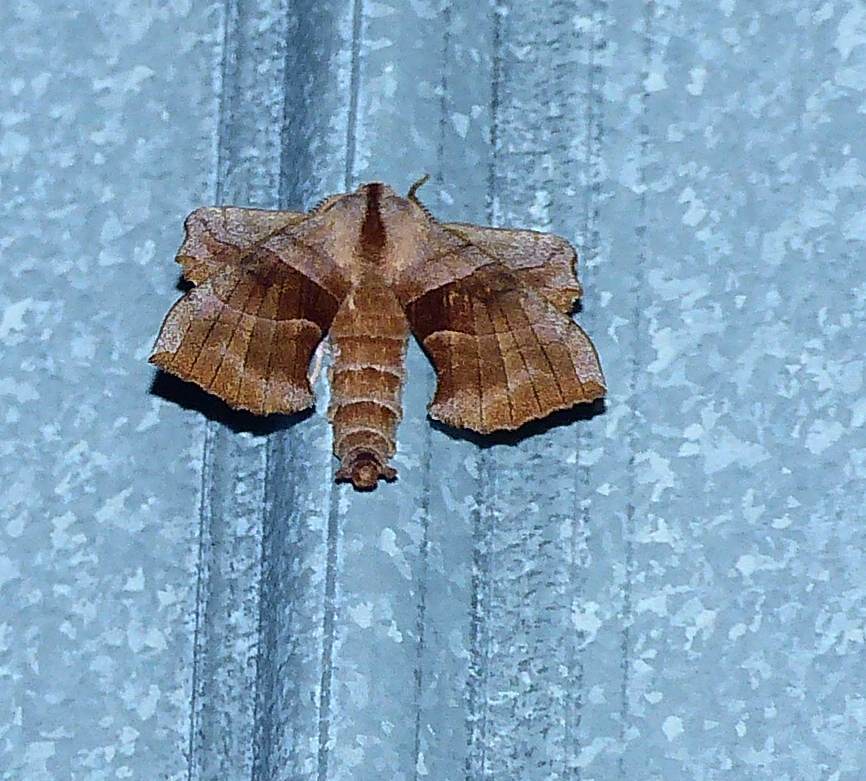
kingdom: Animalia
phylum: Arthropoda
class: Insecta
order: Lepidoptera
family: Sphingidae
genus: Amorpha
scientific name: Amorpha juglandis
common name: Walnut sphinx
